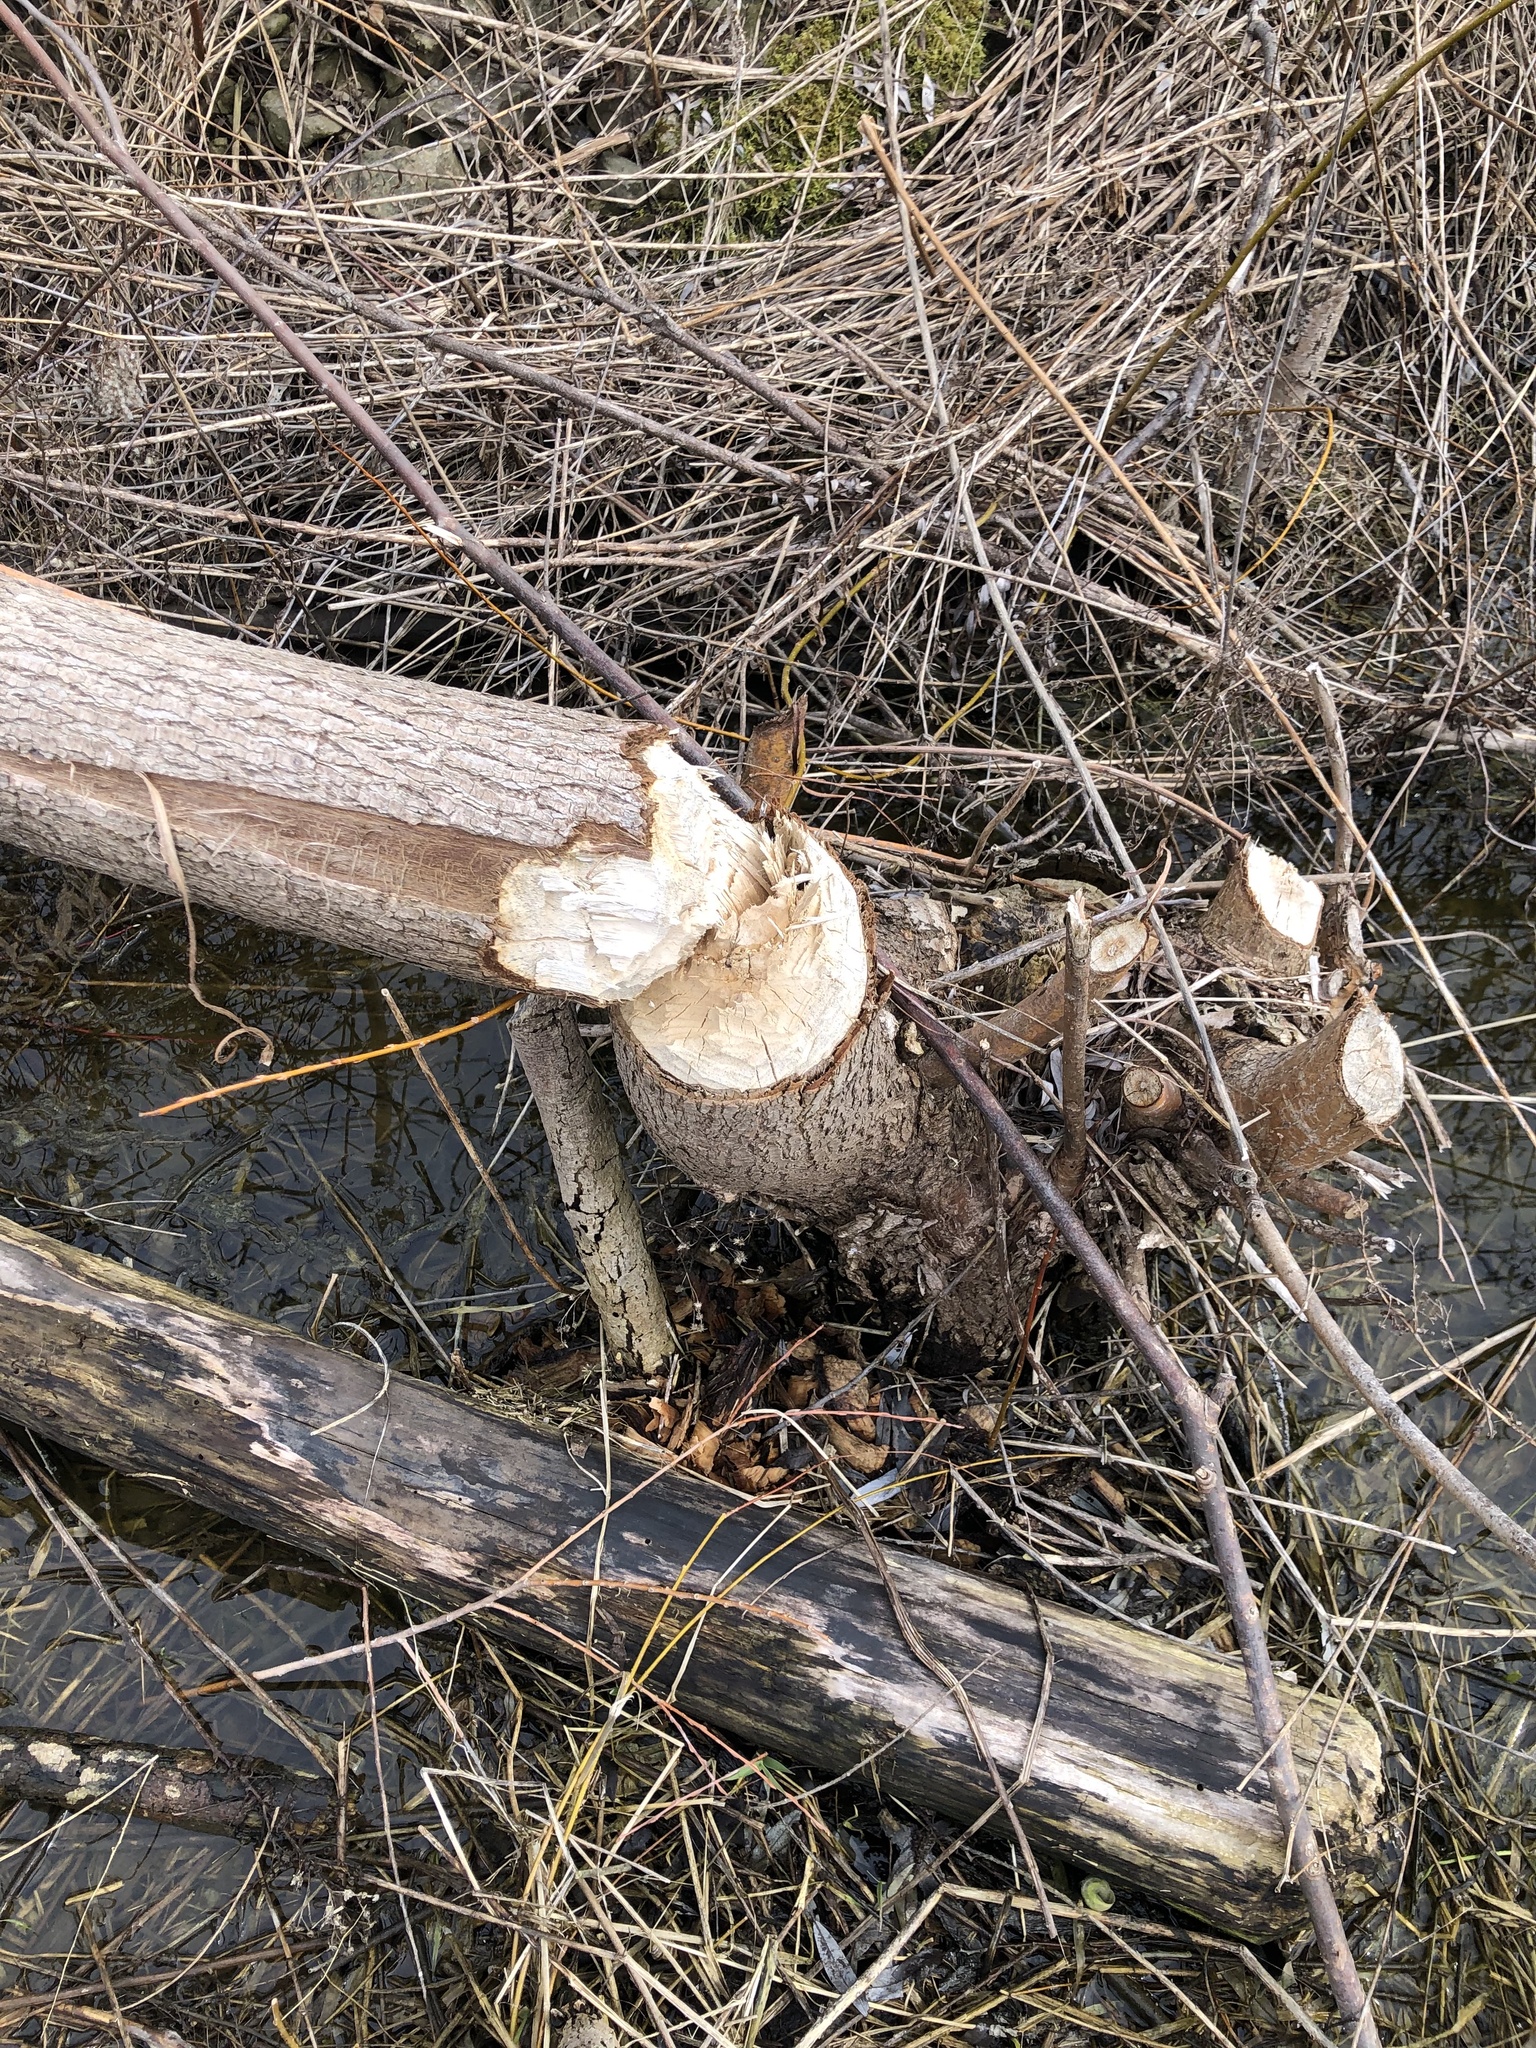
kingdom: Animalia
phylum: Chordata
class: Mammalia
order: Rodentia
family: Castoridae
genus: Castor
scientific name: Castor canadensis
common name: American beaver
